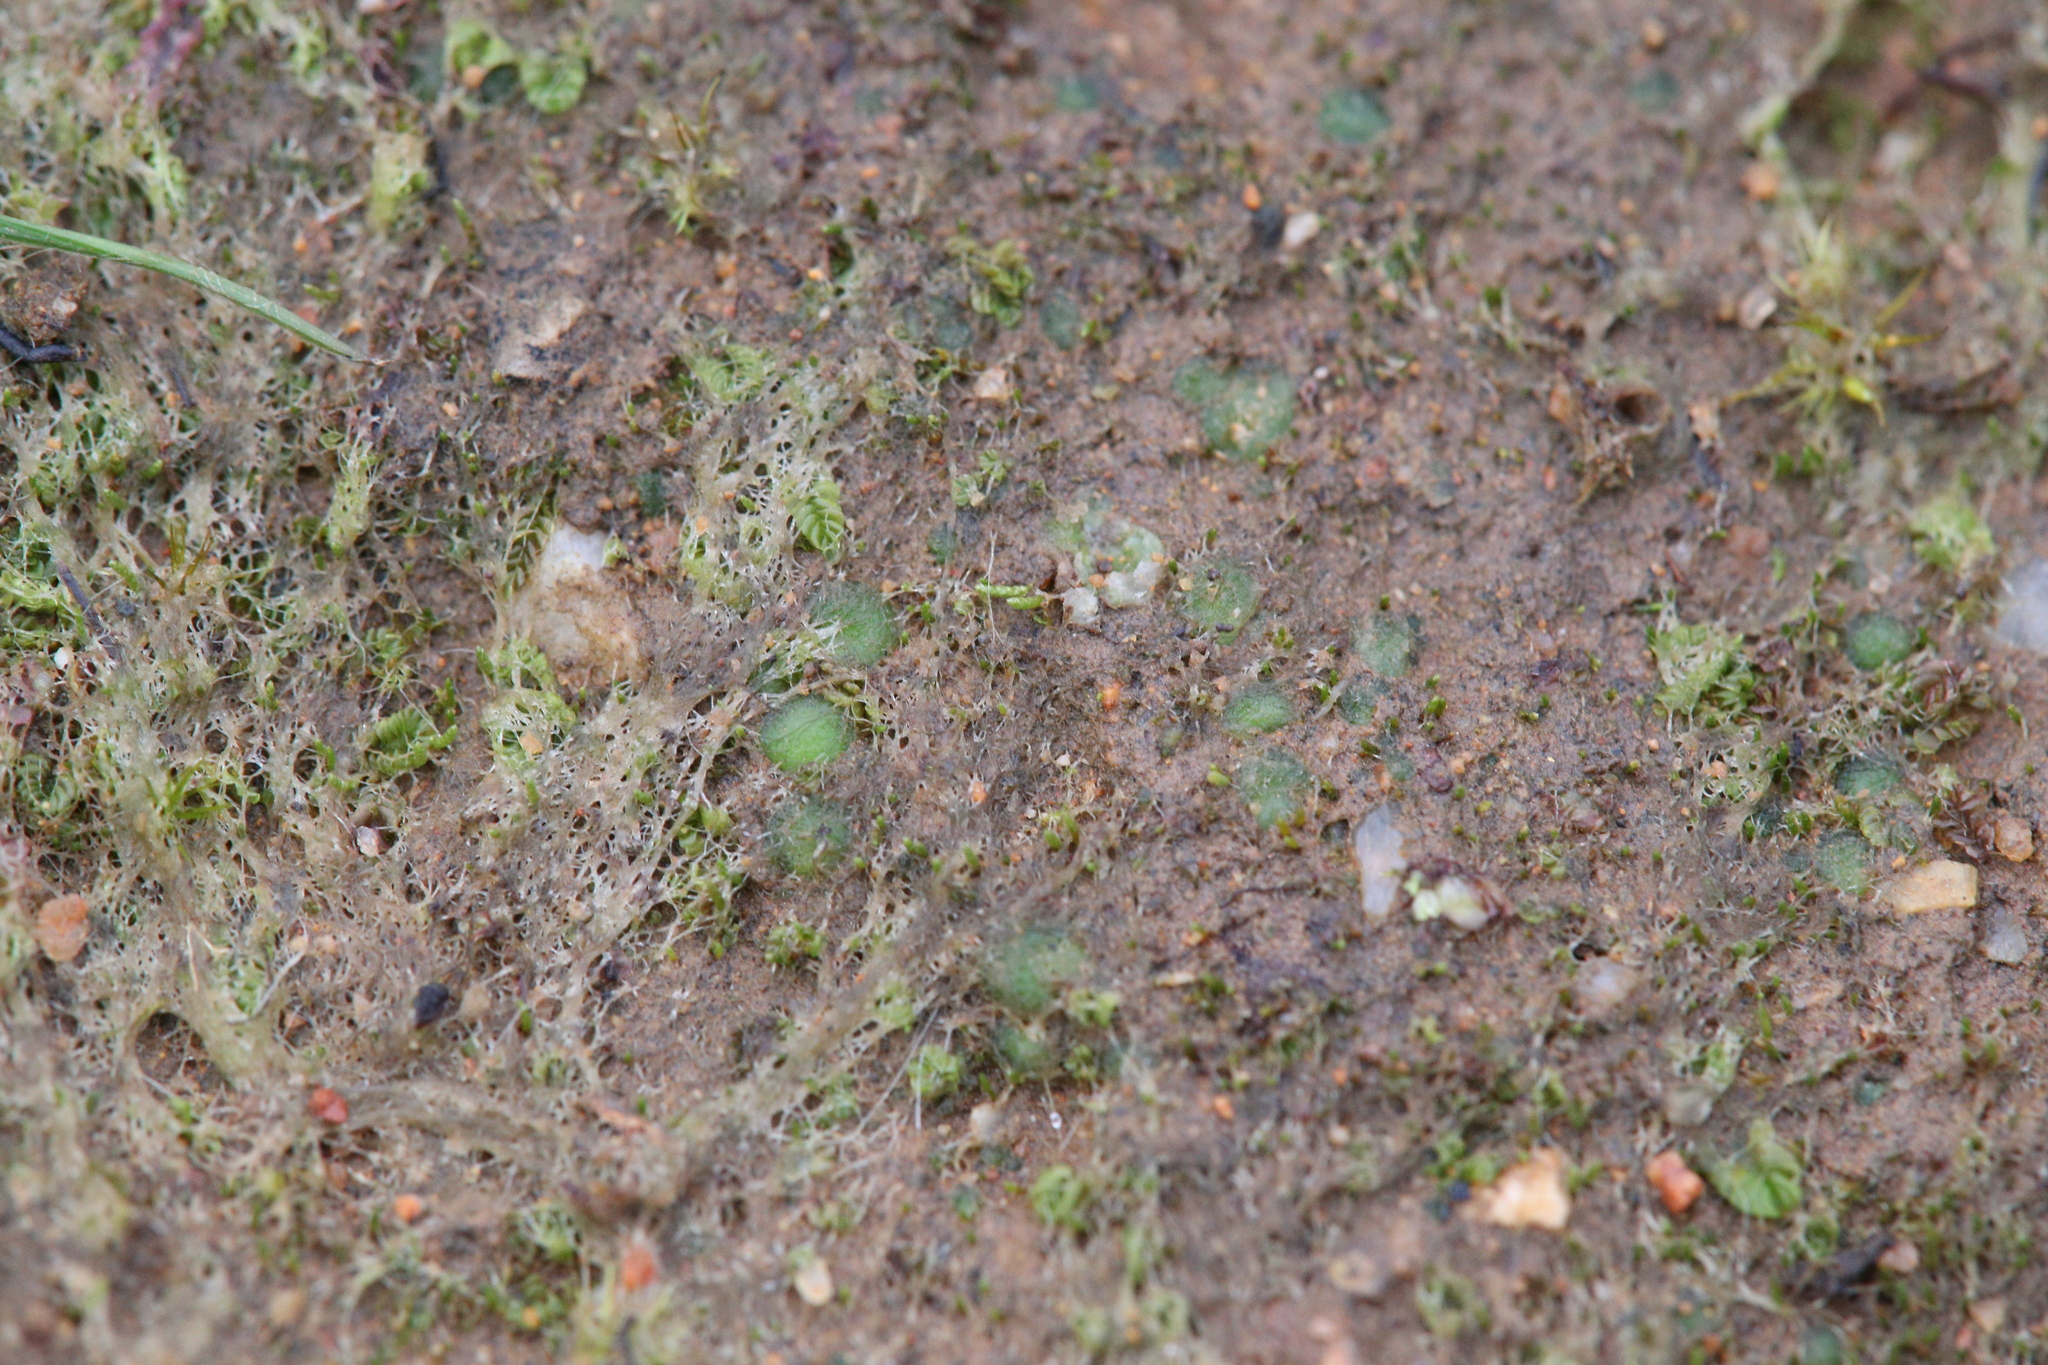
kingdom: Plantae
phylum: Marchantiophyta
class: Jungermanniopsida
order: Jungermanniales
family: Acrobolbaceae
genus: Enigmella
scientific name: Enigmella thallina
